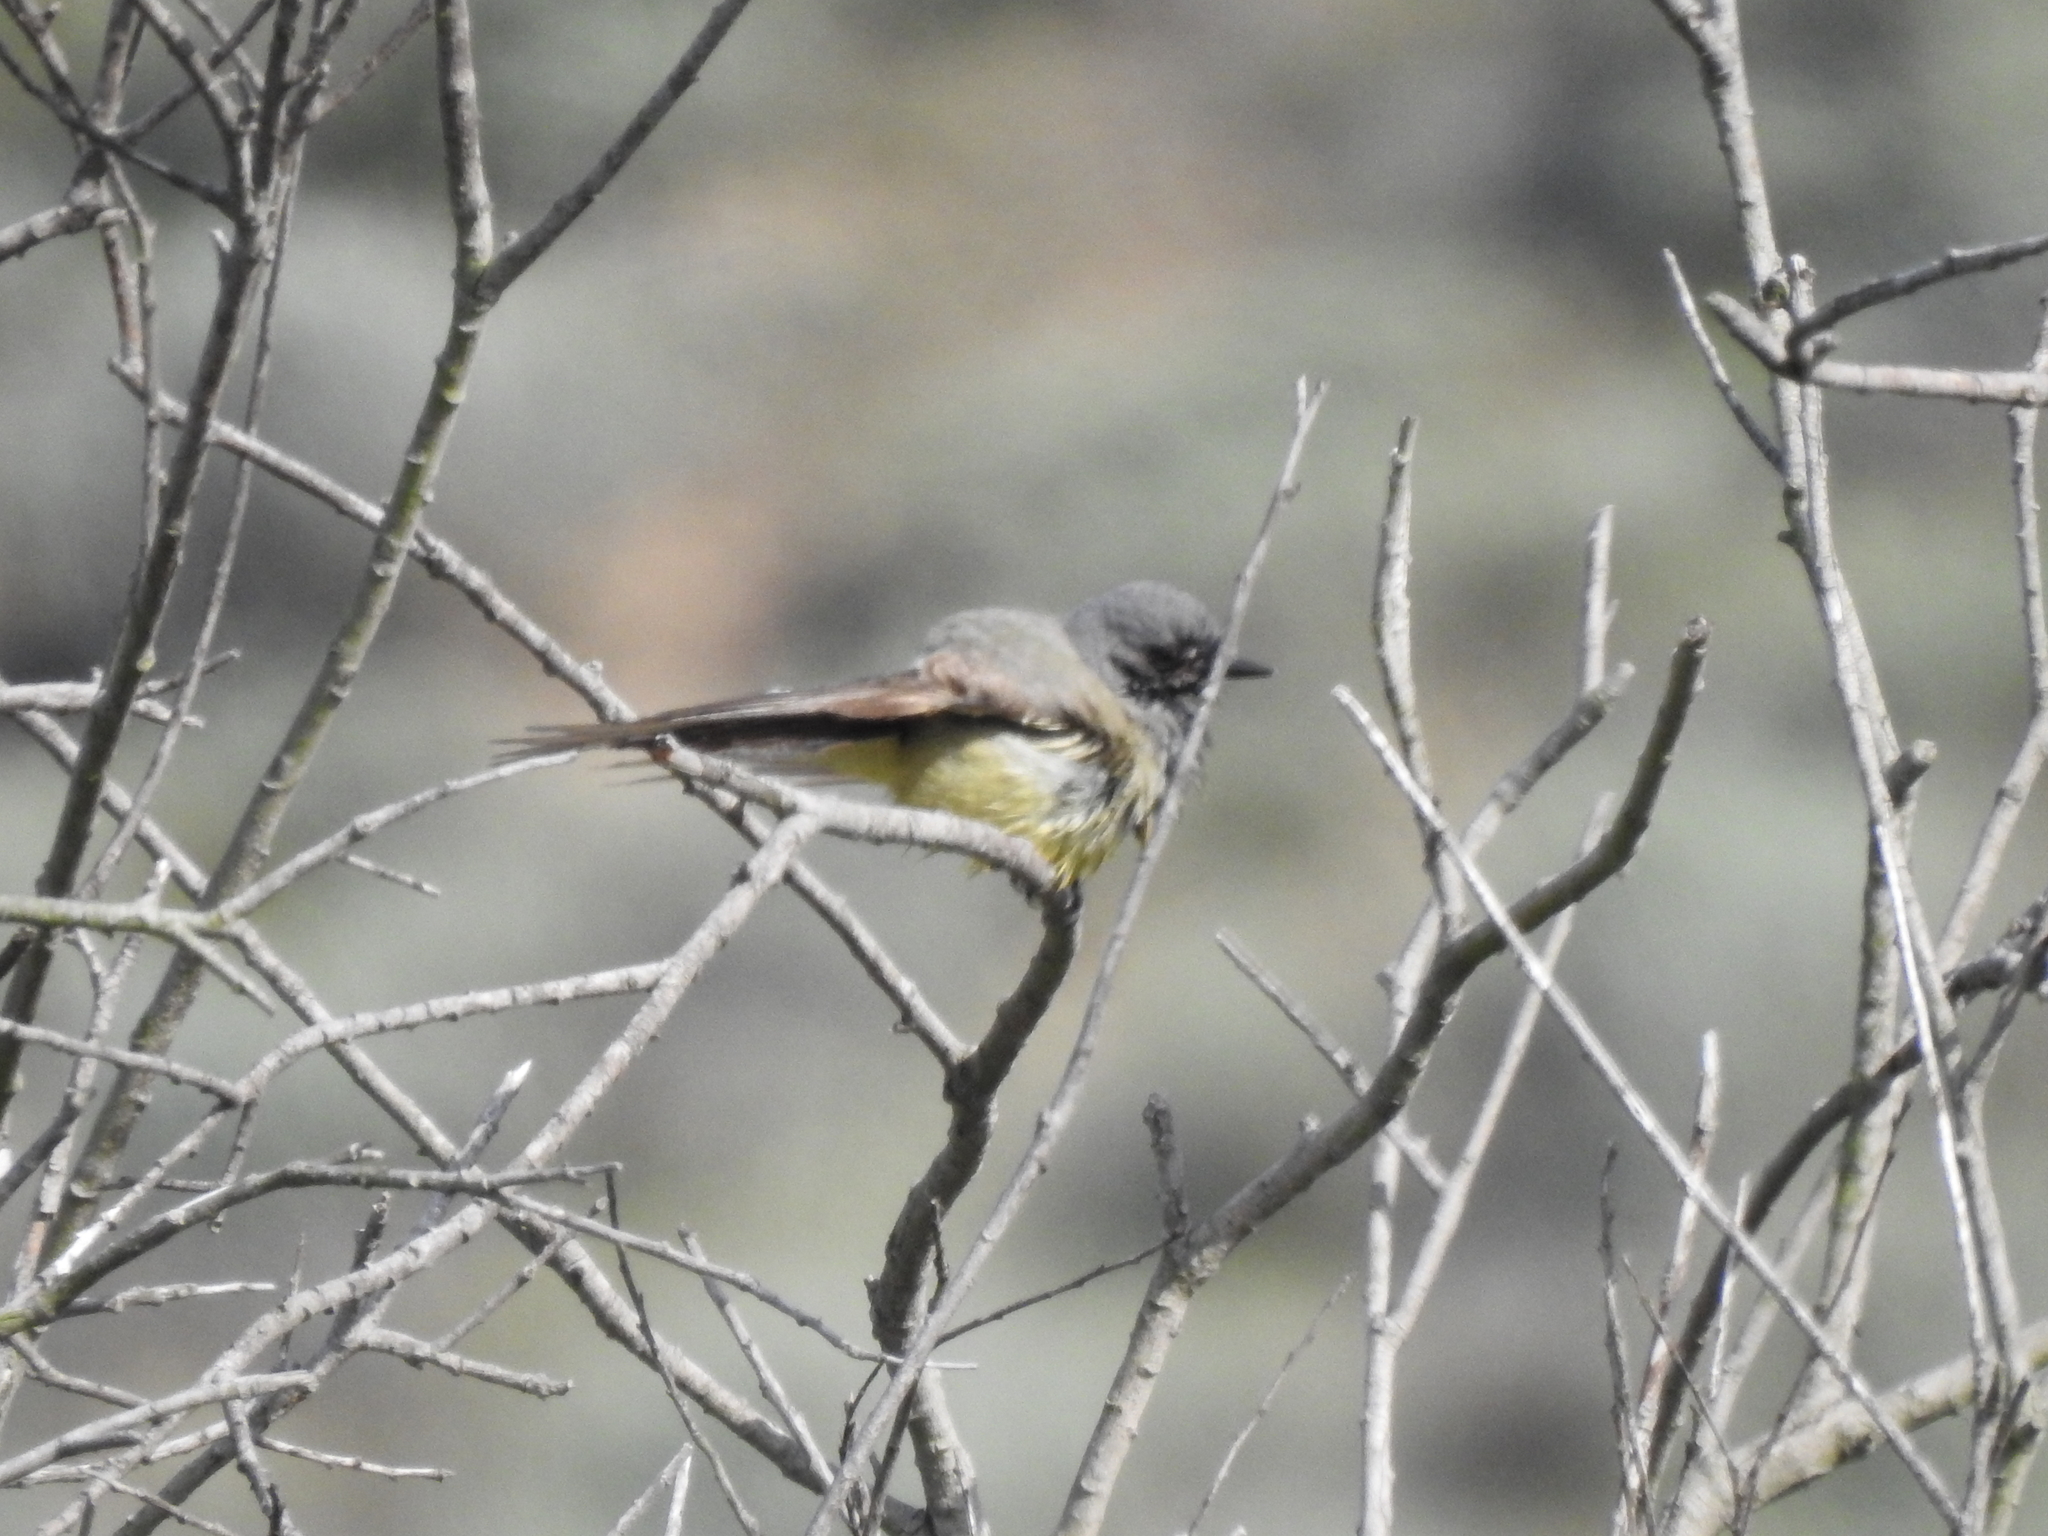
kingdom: Animalia
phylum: Chordata
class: Aves
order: Passeriformes
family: Tyrannidae
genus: Tyrannus
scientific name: Tyrannus vociferans
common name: Cassin's kingbird
